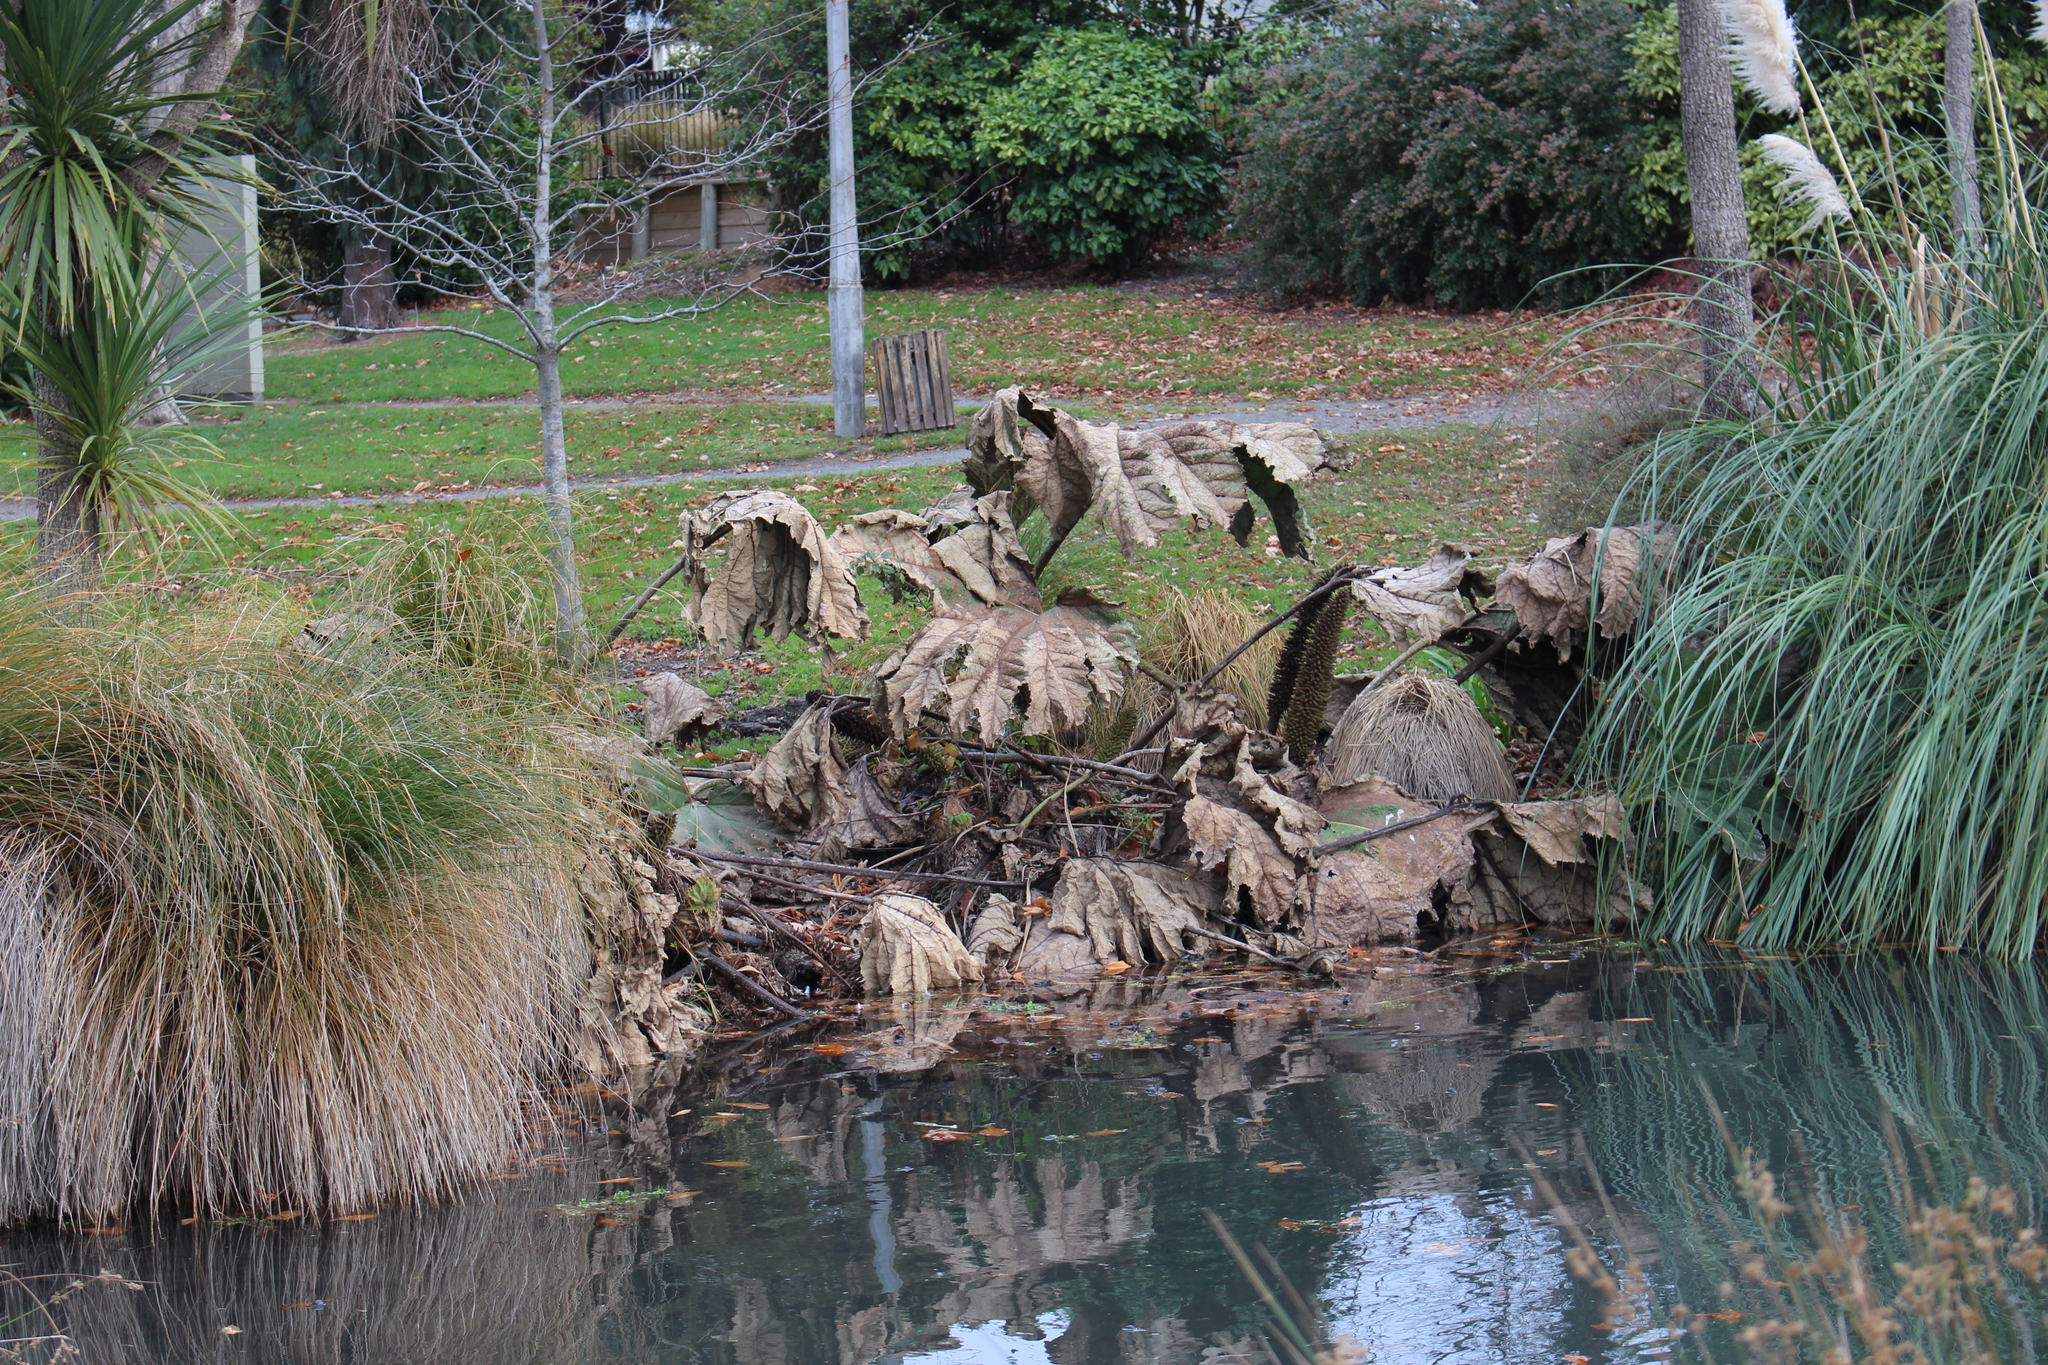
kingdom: Plantae
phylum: Tracheophyta
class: Magnoliopsida
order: Gunnerales
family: Gunneraceae
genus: Gunnera
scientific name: Gunnera tinctoria
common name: Giant-rhubarb
